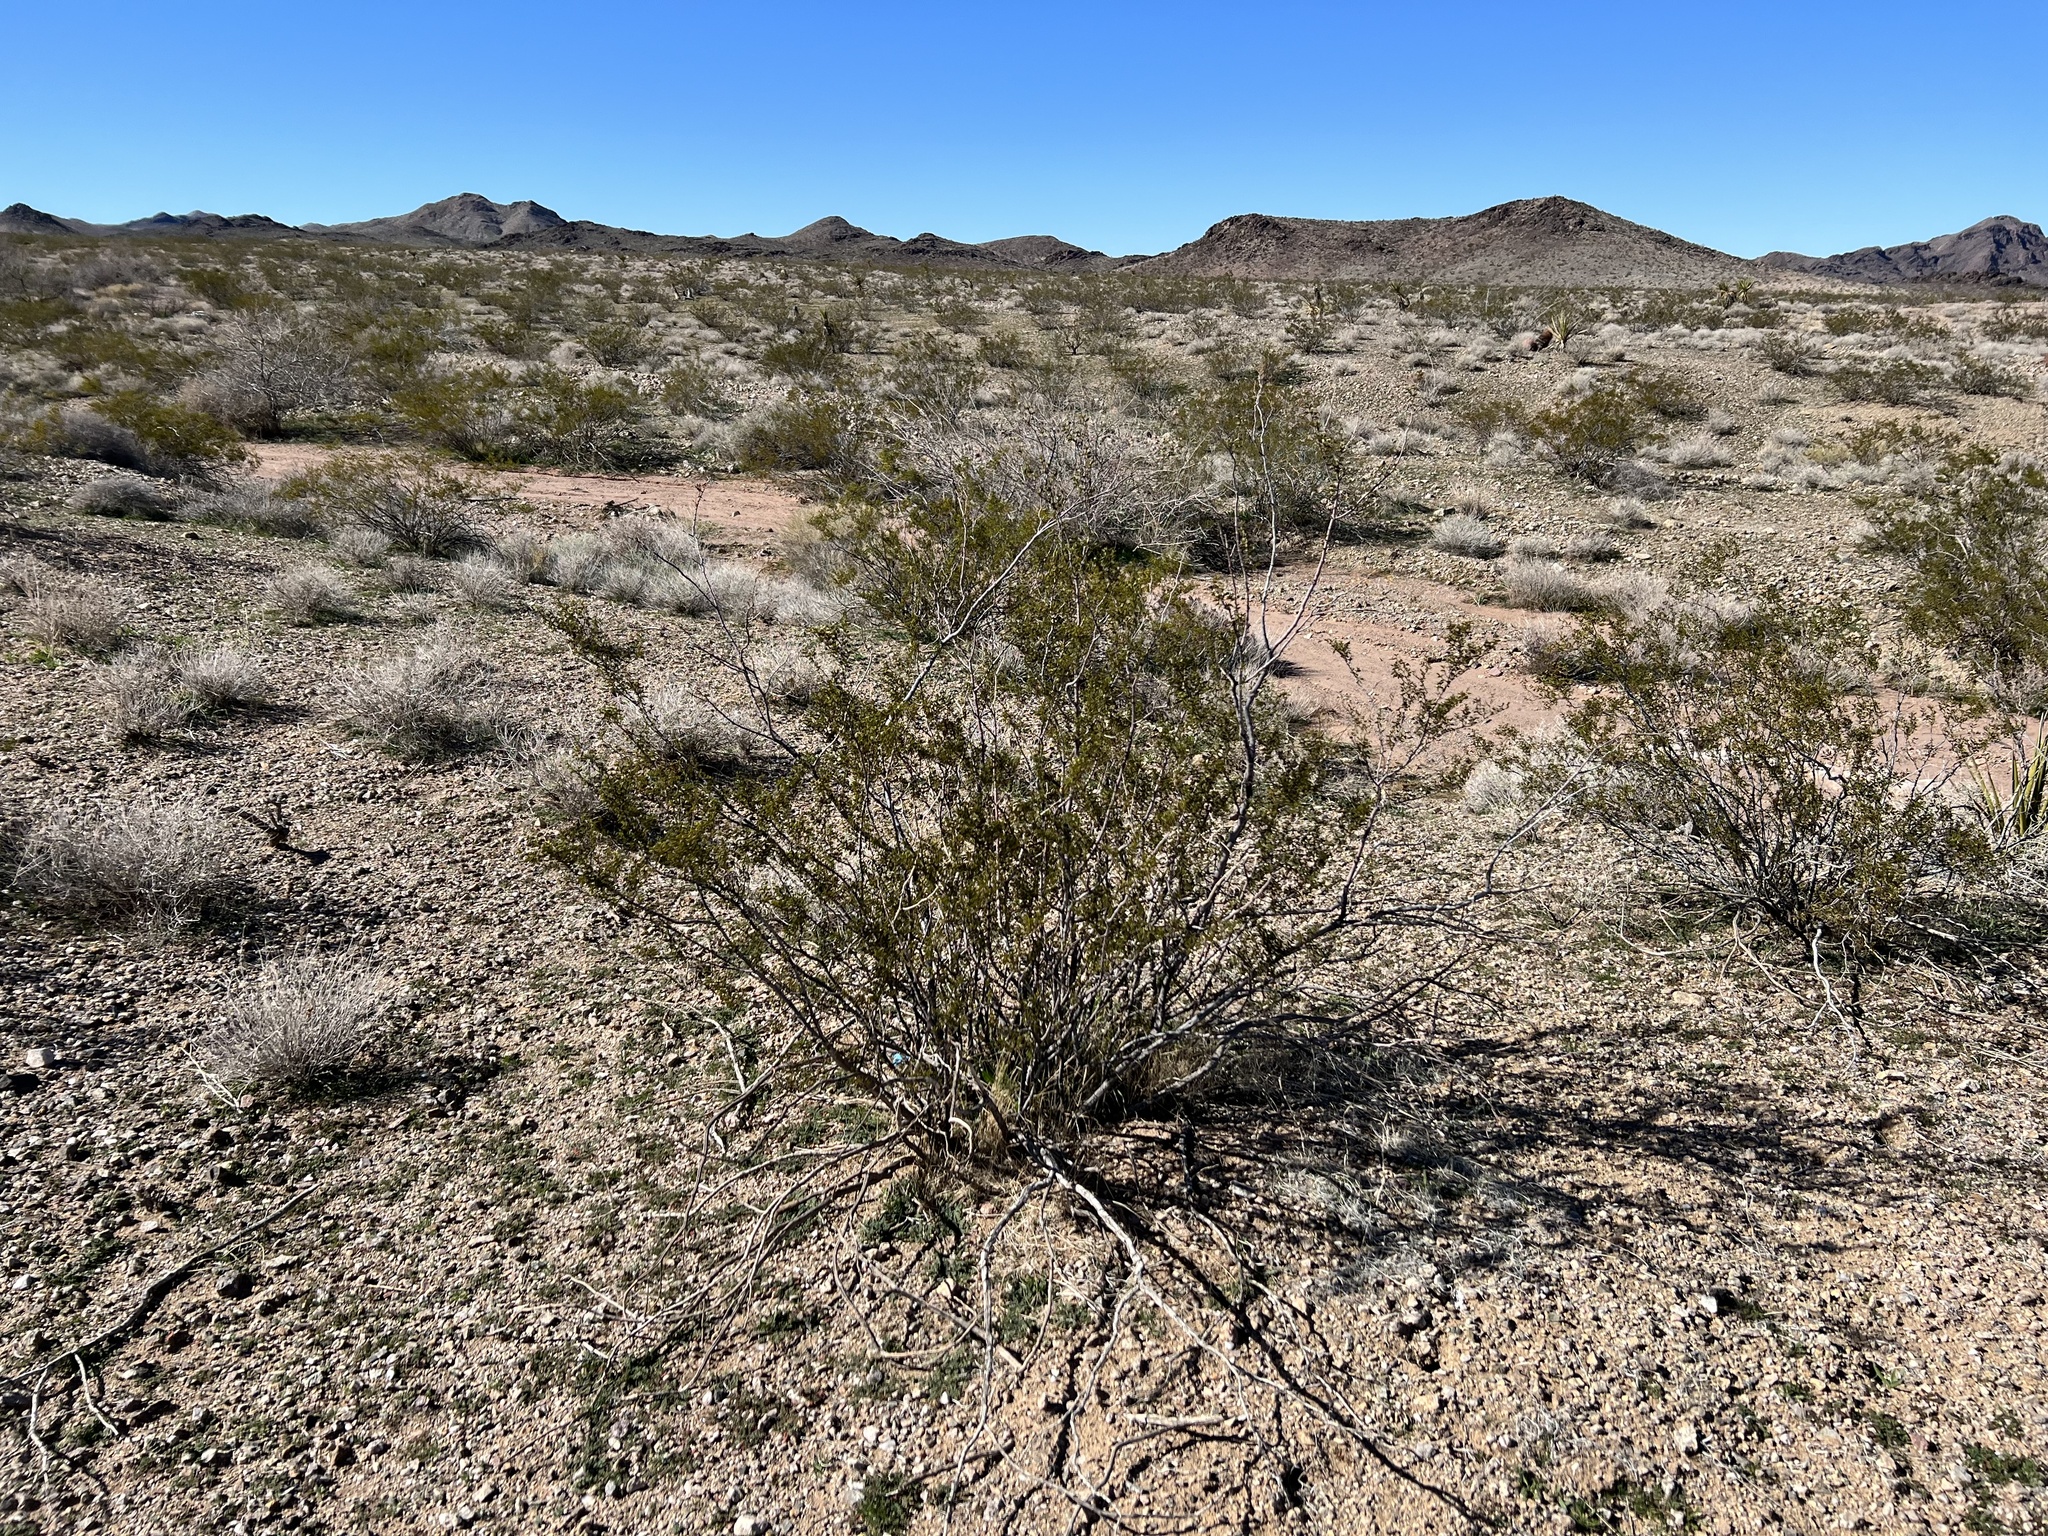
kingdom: Plantae
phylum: Tracheophyta
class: Magnoliopsida
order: Zygophyllales
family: Zygophyllaceae
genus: Larrea
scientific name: Larrea tridentata
